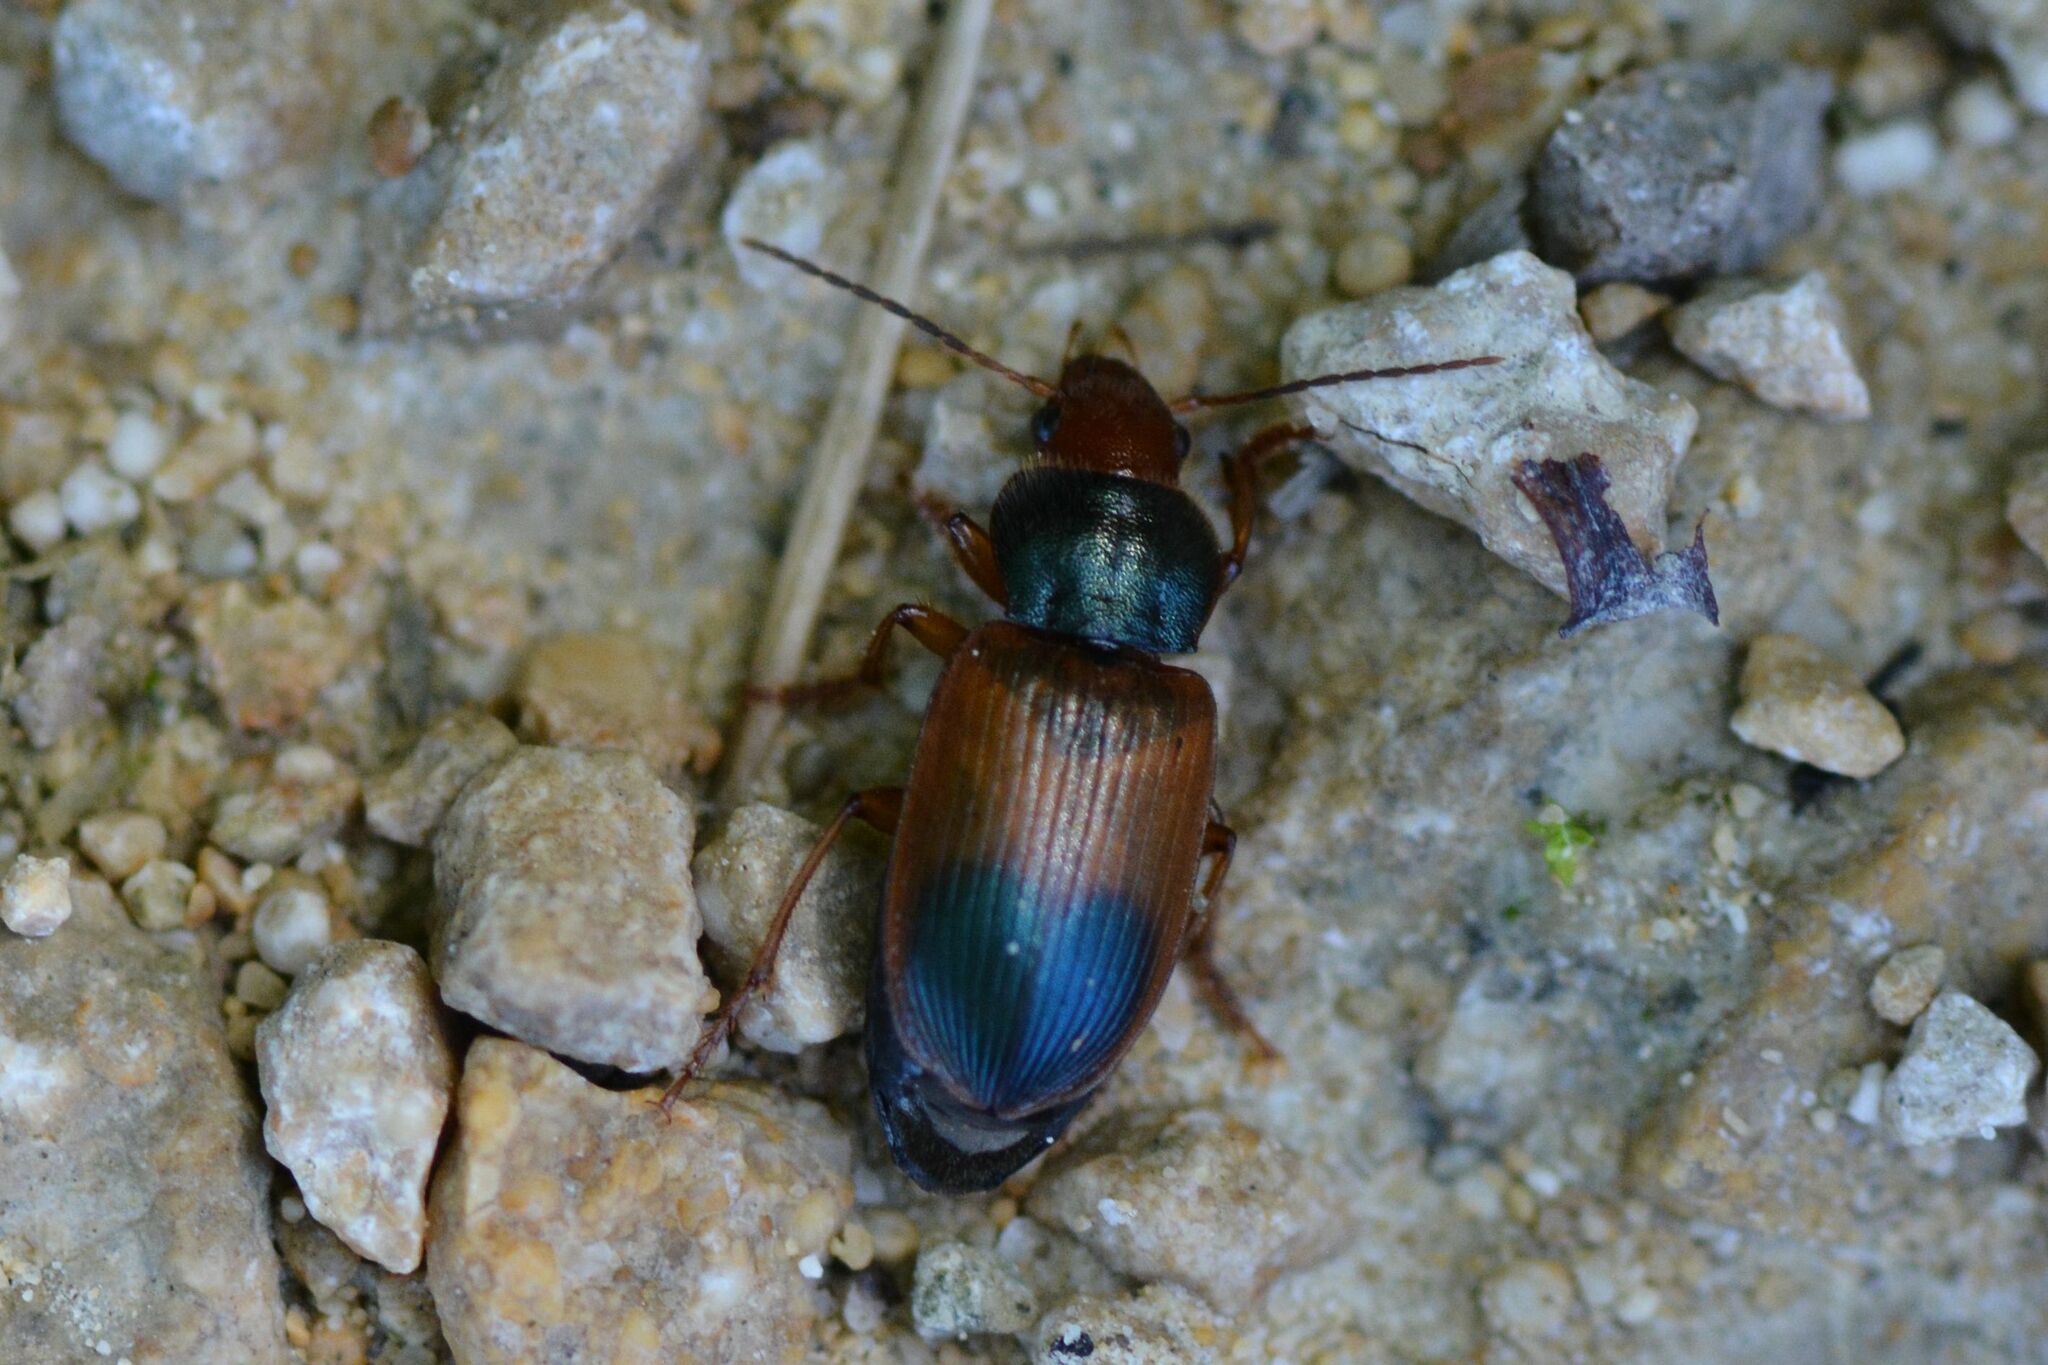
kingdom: Animalia
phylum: Arthropoda
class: Insecta
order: Coleoptera
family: Carabidae
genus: Diachromus
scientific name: Diachromus germanus
